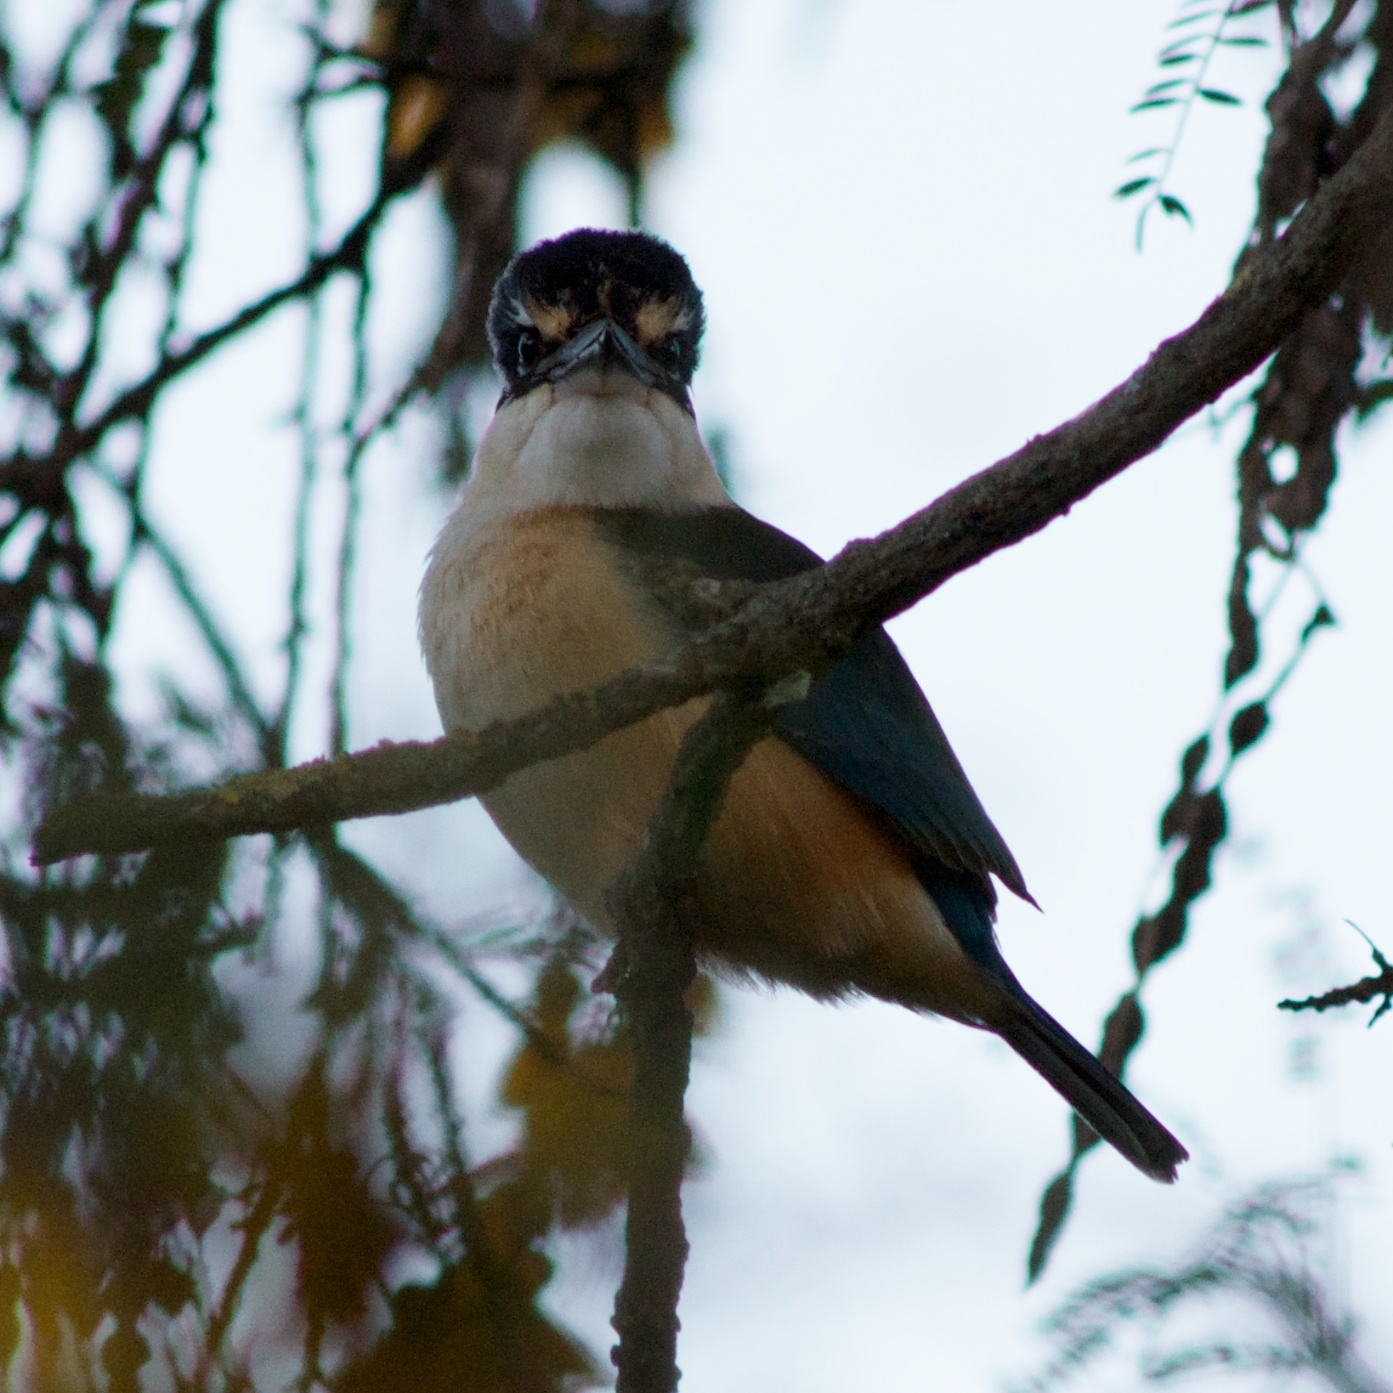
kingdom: Animalia
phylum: Chordata
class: Aves
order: Coraciiformes
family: Alcedinidae
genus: Todiramphus
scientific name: Todiramphus sanctus
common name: Sacred kingfisher
